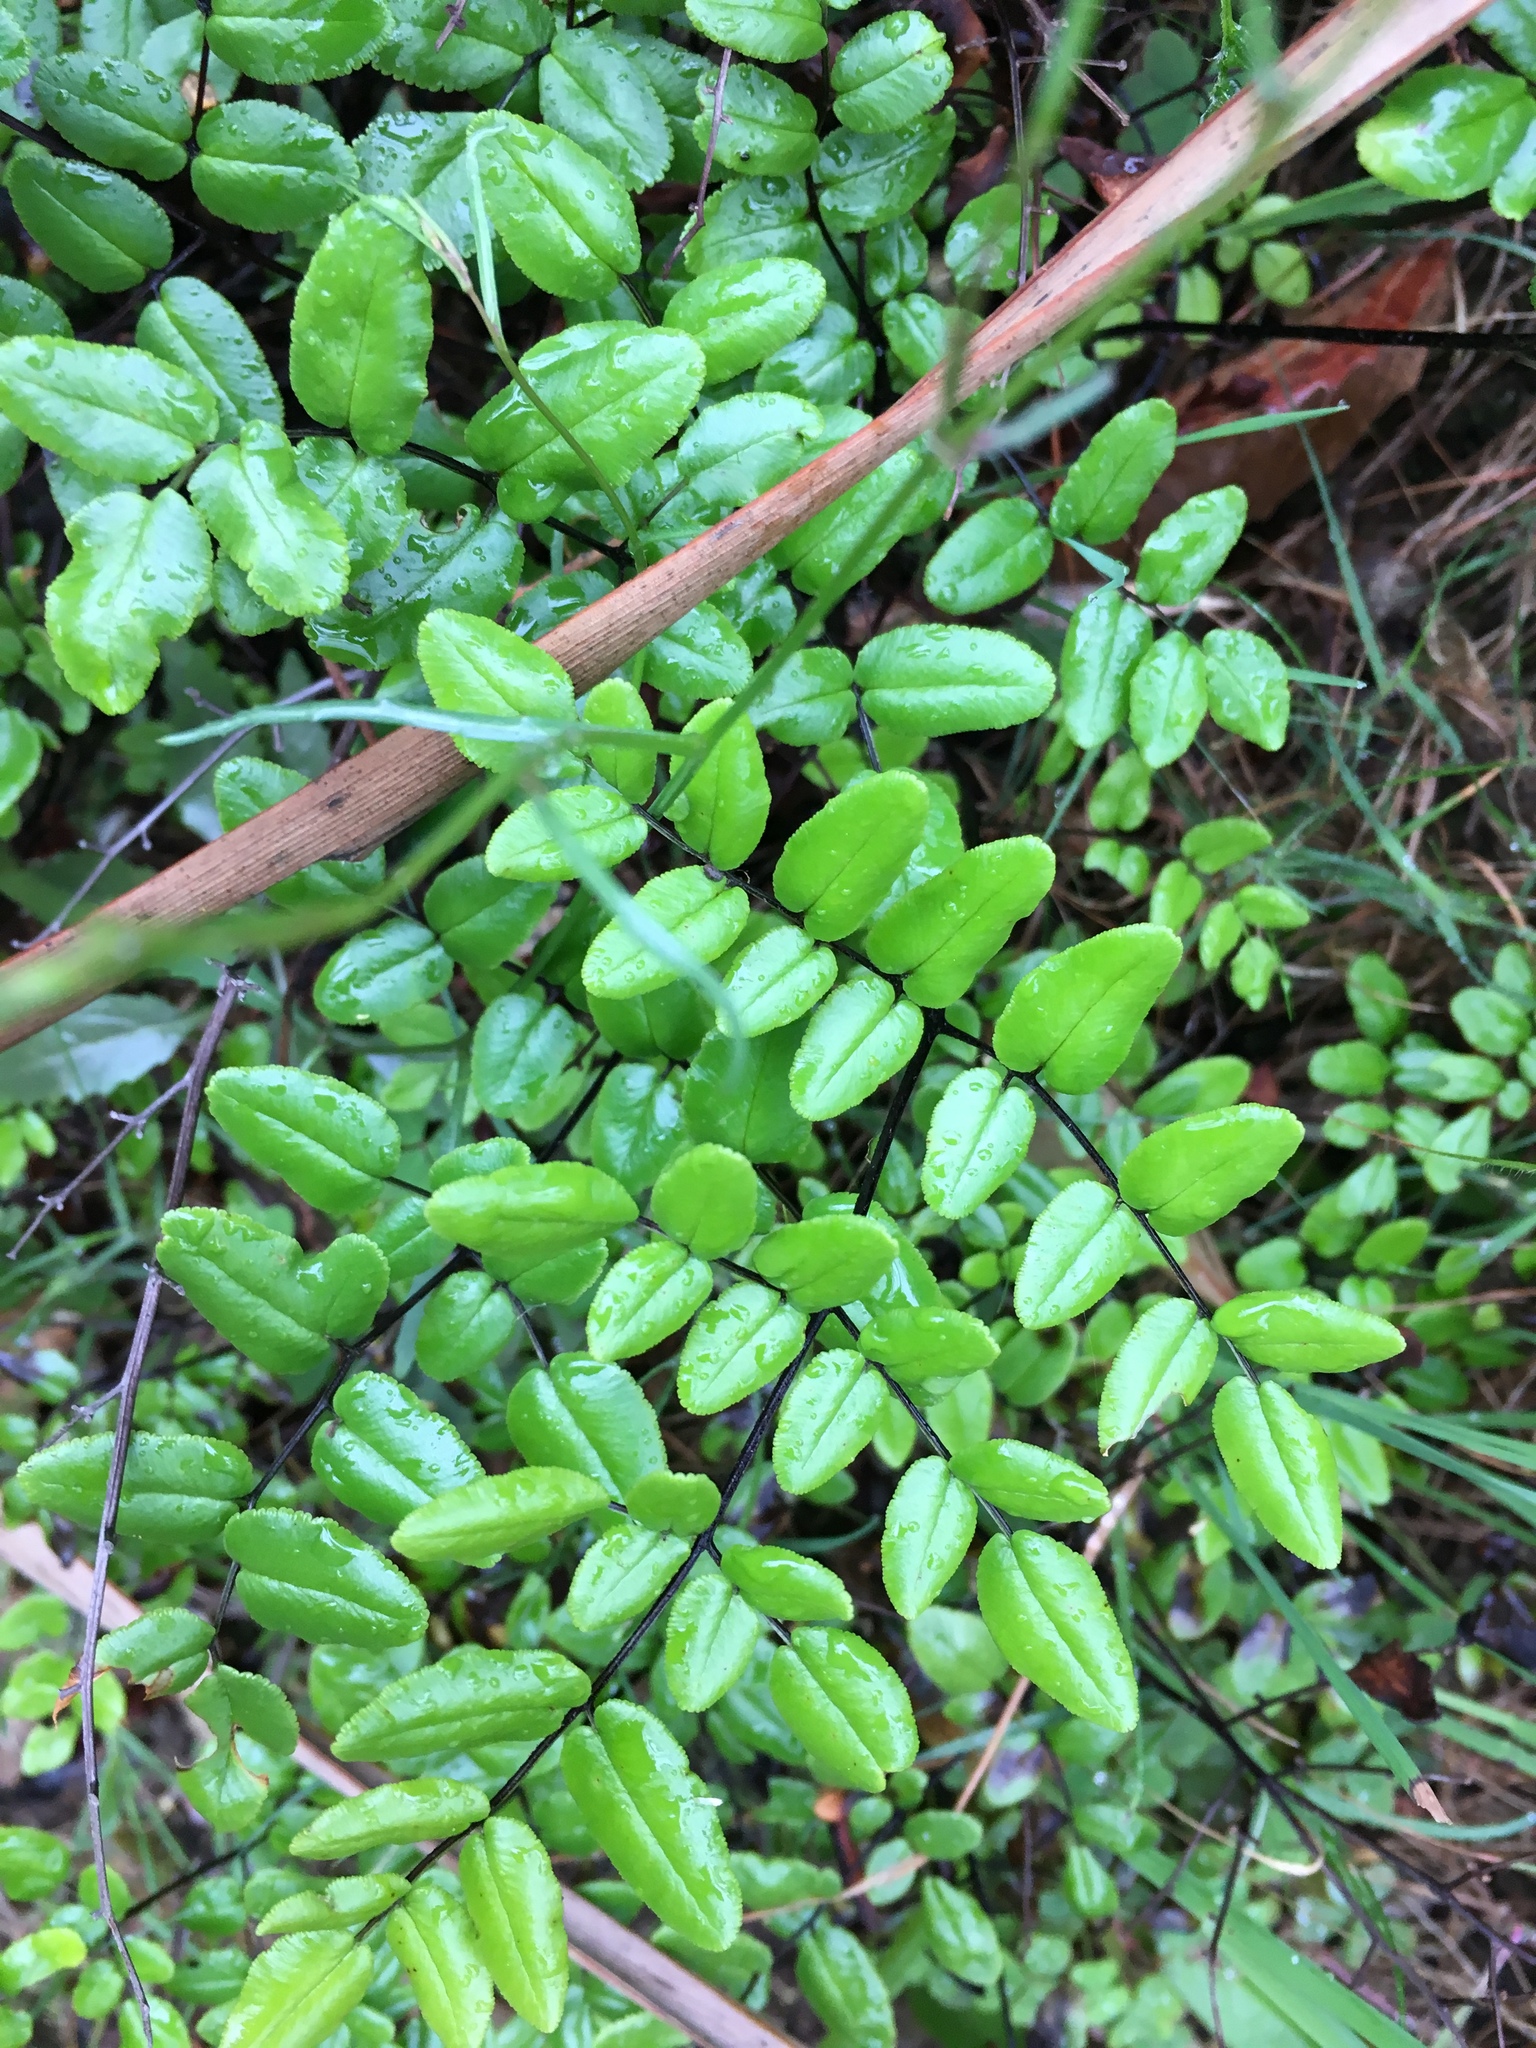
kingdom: Plantae
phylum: Tracheophyta
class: Polypodiopsida
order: Polypodiales
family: Pteridaceae
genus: Pellaea
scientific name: Pellaea pteroides
